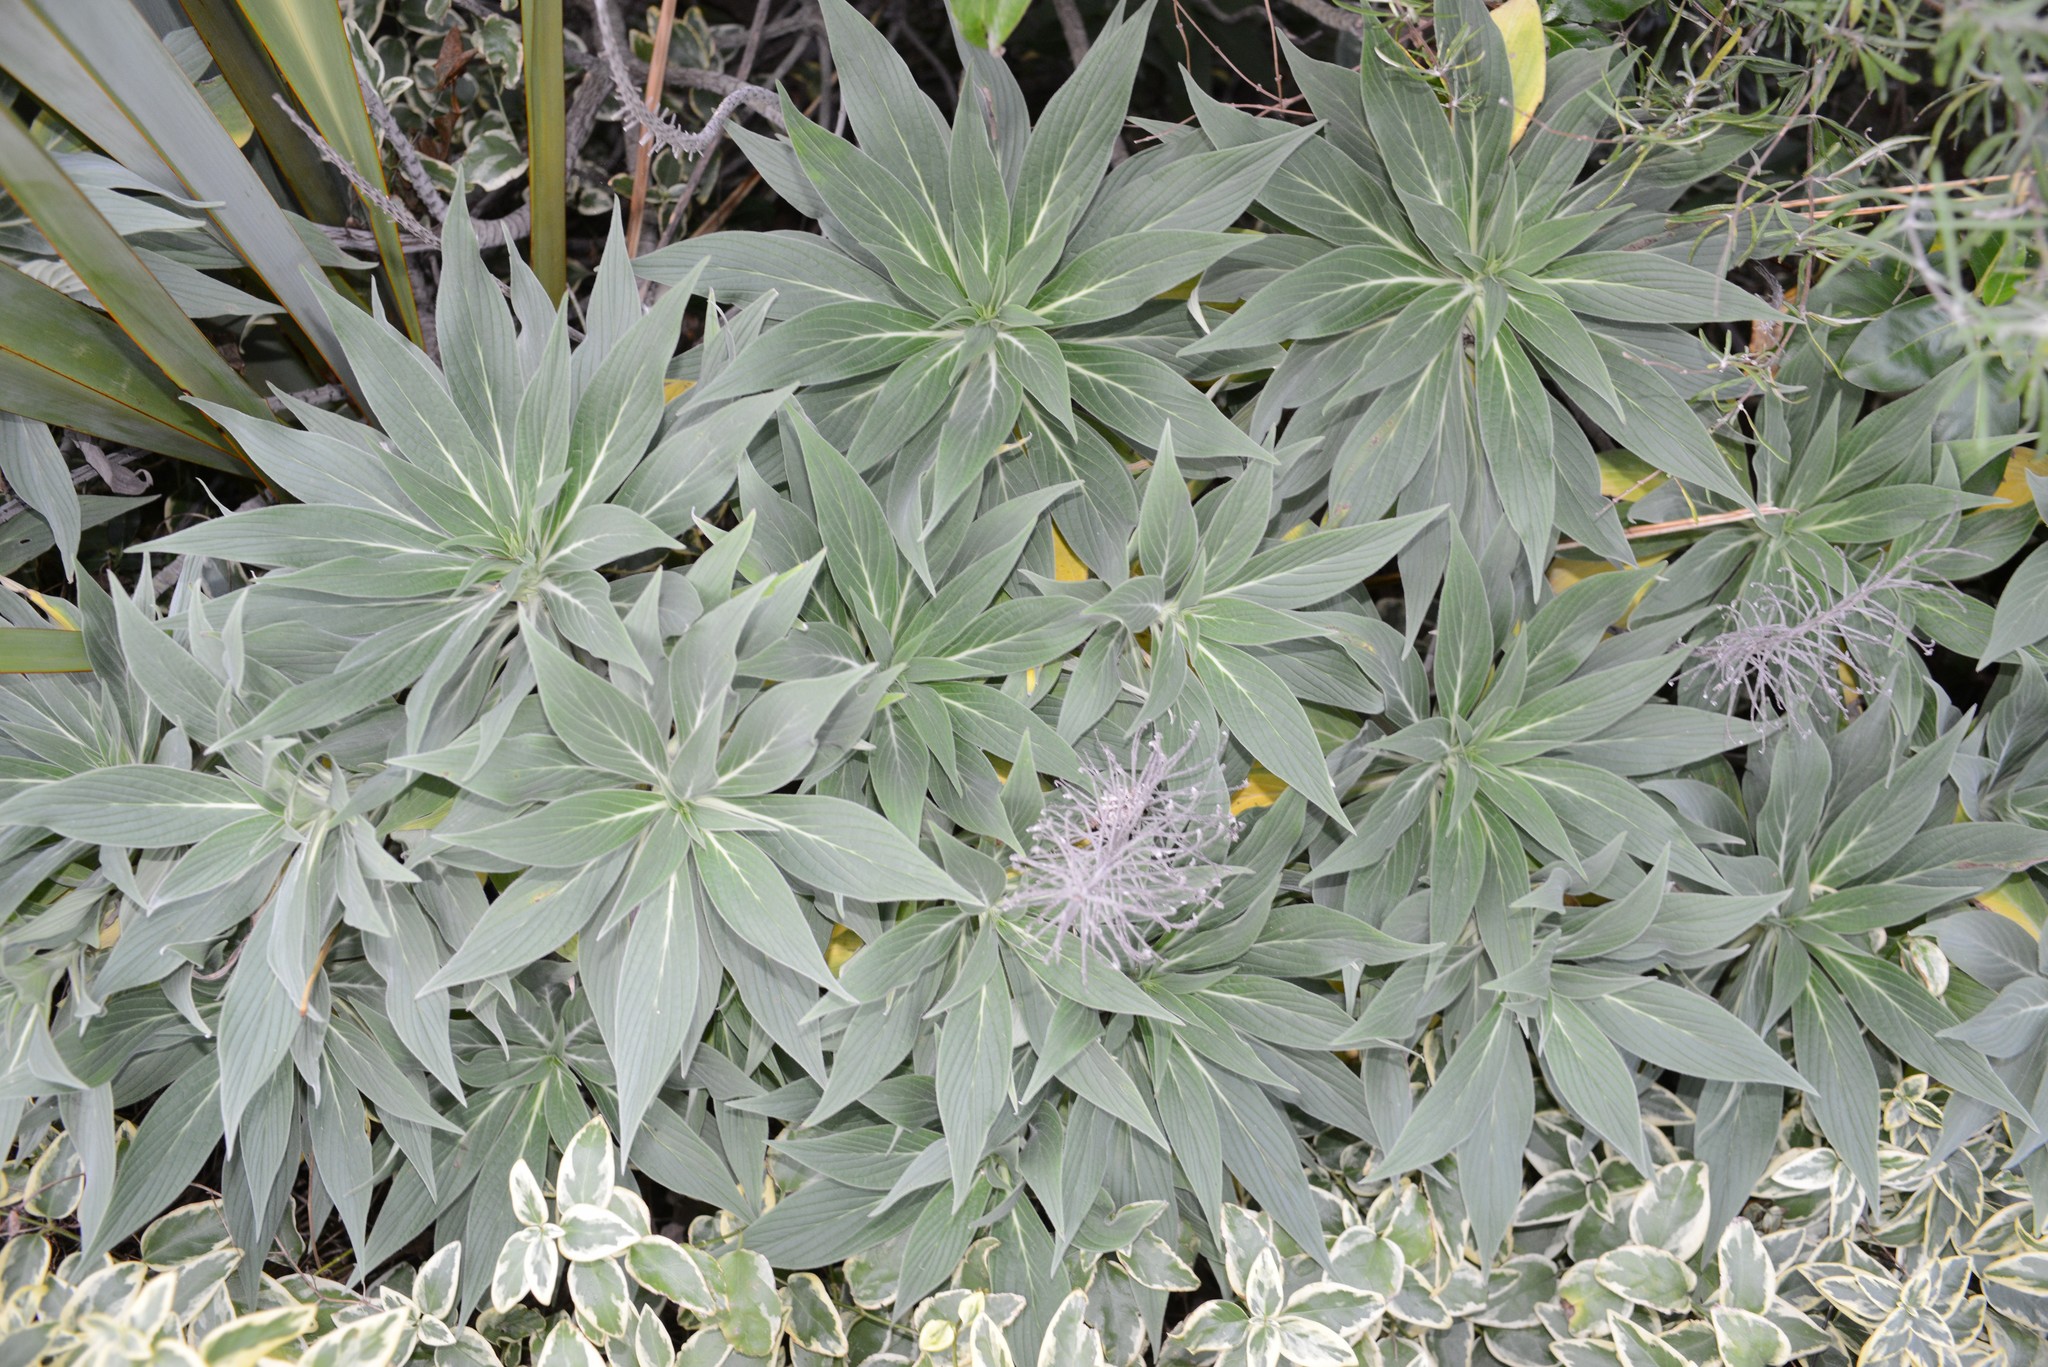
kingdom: Plantae
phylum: Tracheophyta
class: Magnoliopsida
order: Boraginales
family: Boraginaceae
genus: Echium
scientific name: Echium candicans
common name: Pride of madeira
